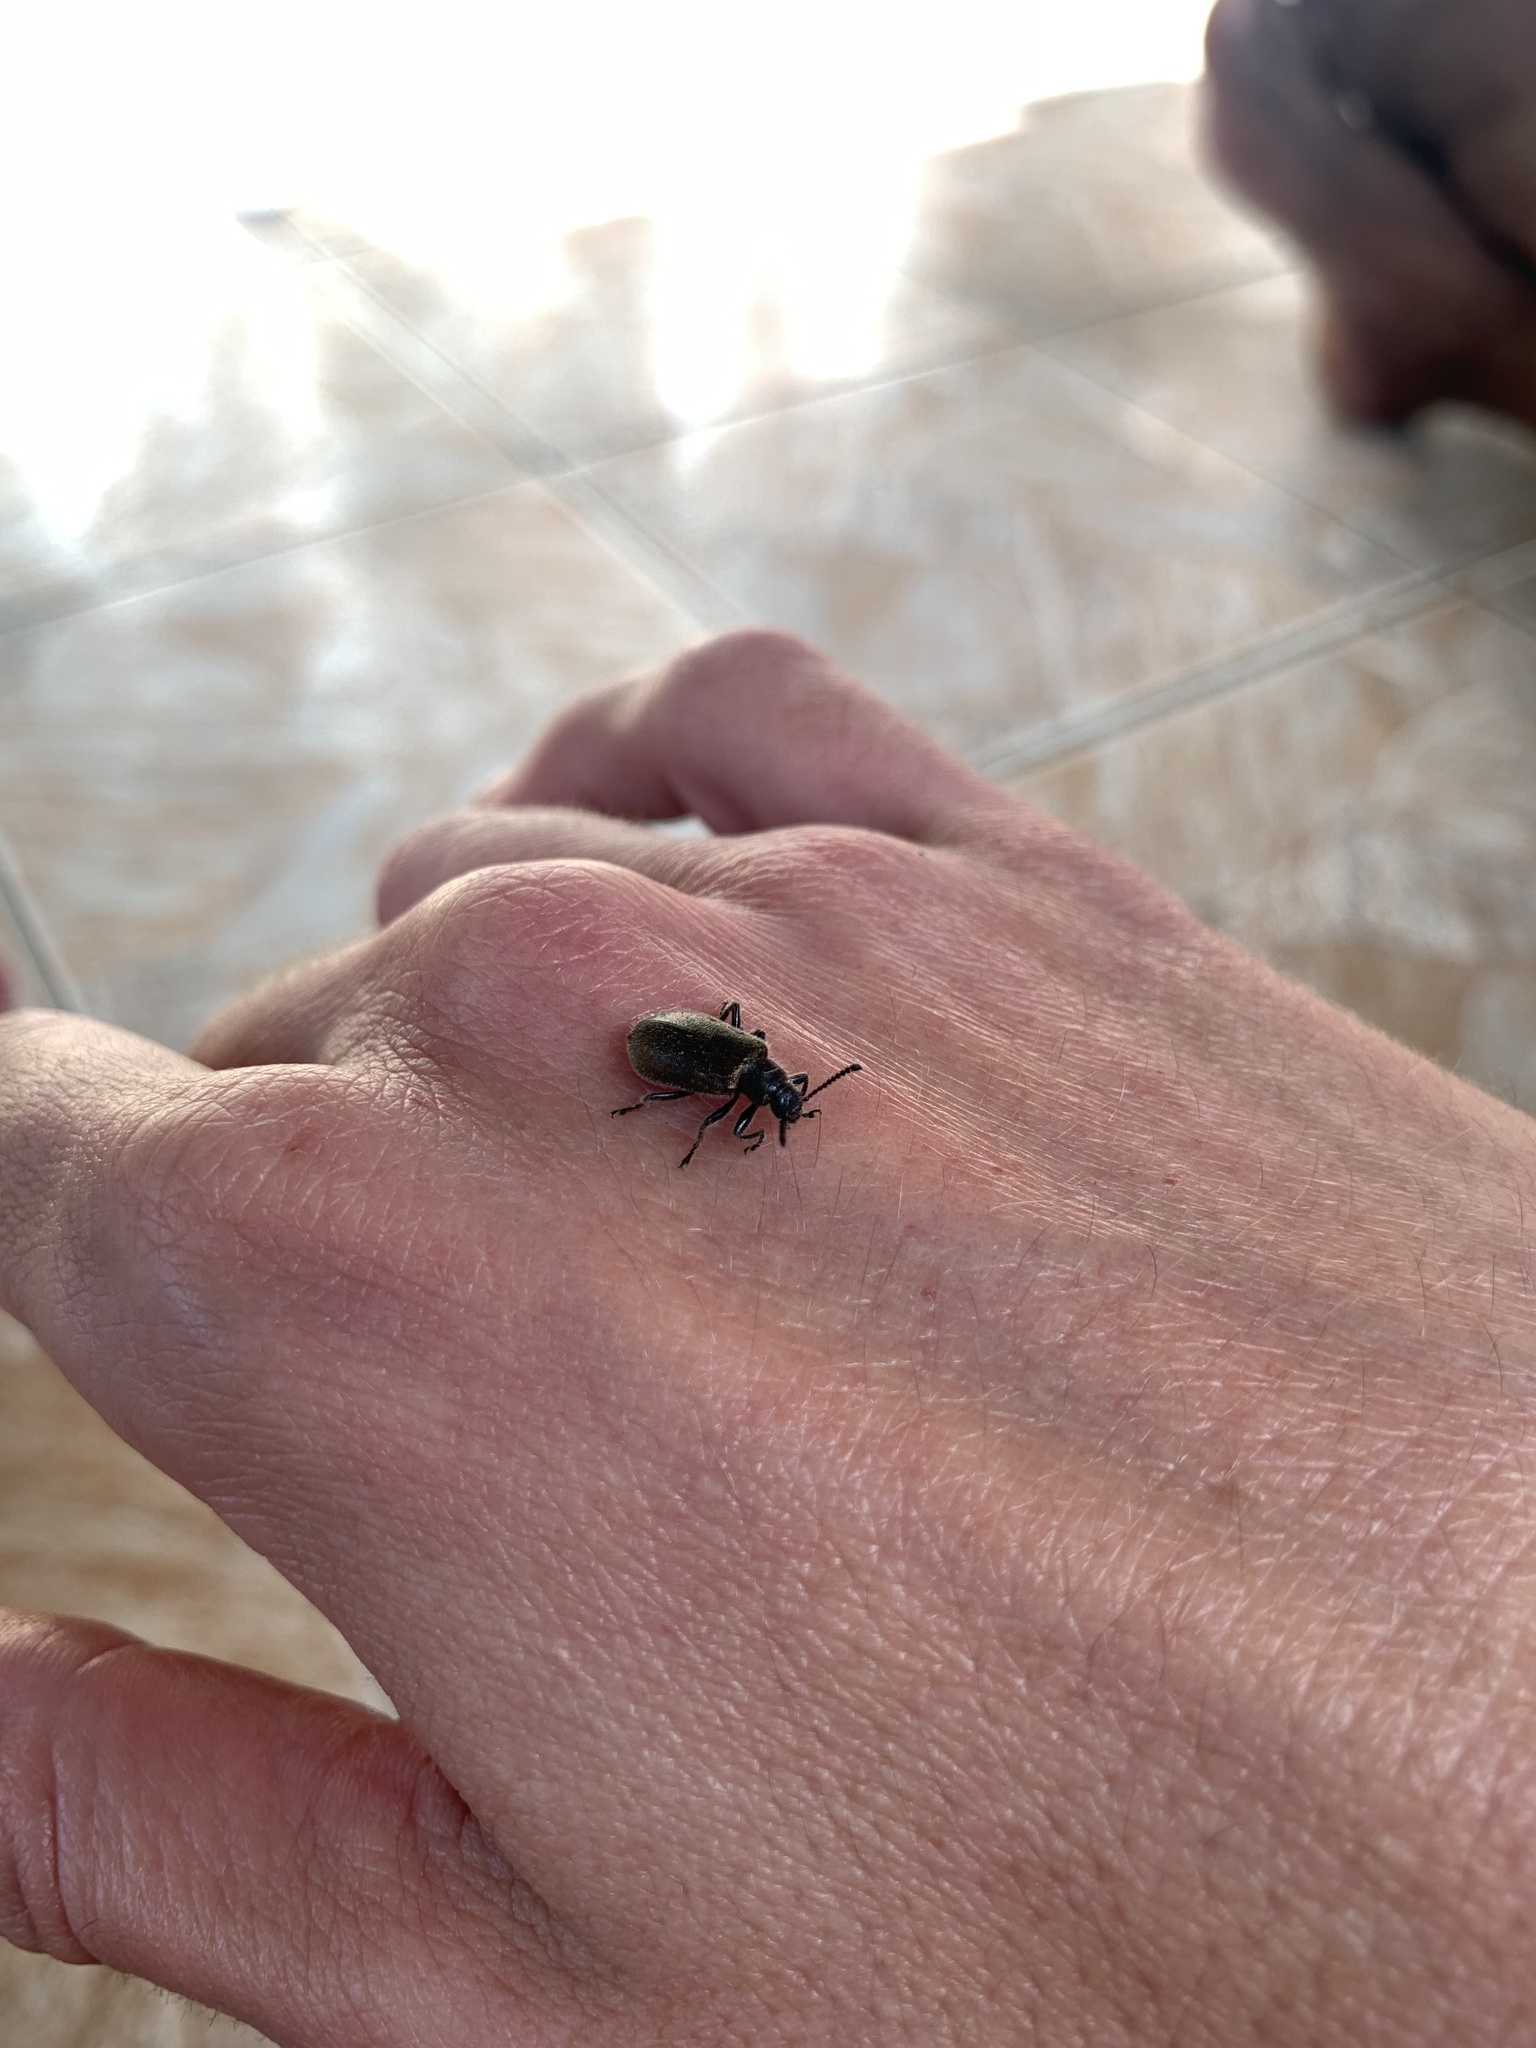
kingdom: Animalia
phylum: Arthropoda
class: Insecta
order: Coleoptera
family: Tenebrionidae
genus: Lagria
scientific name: Lagria villosa
